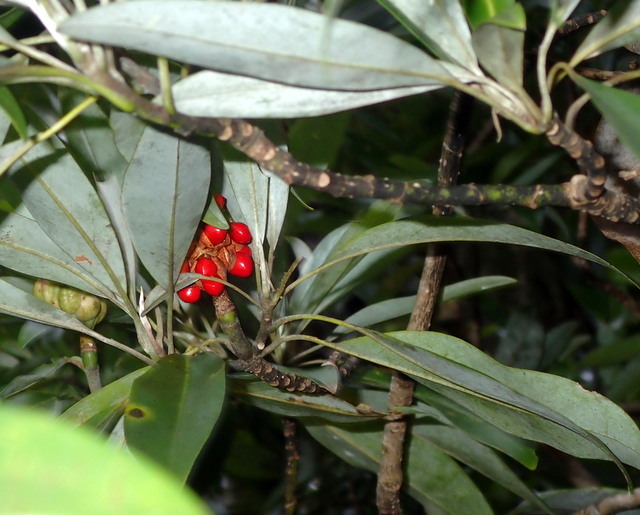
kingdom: Plantae
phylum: Tracheophyta
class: Magnoliopsida
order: Magnoliales
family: Magnoliaceae
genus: Magnolia
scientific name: Magnolia virginiana
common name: Swamp bay
